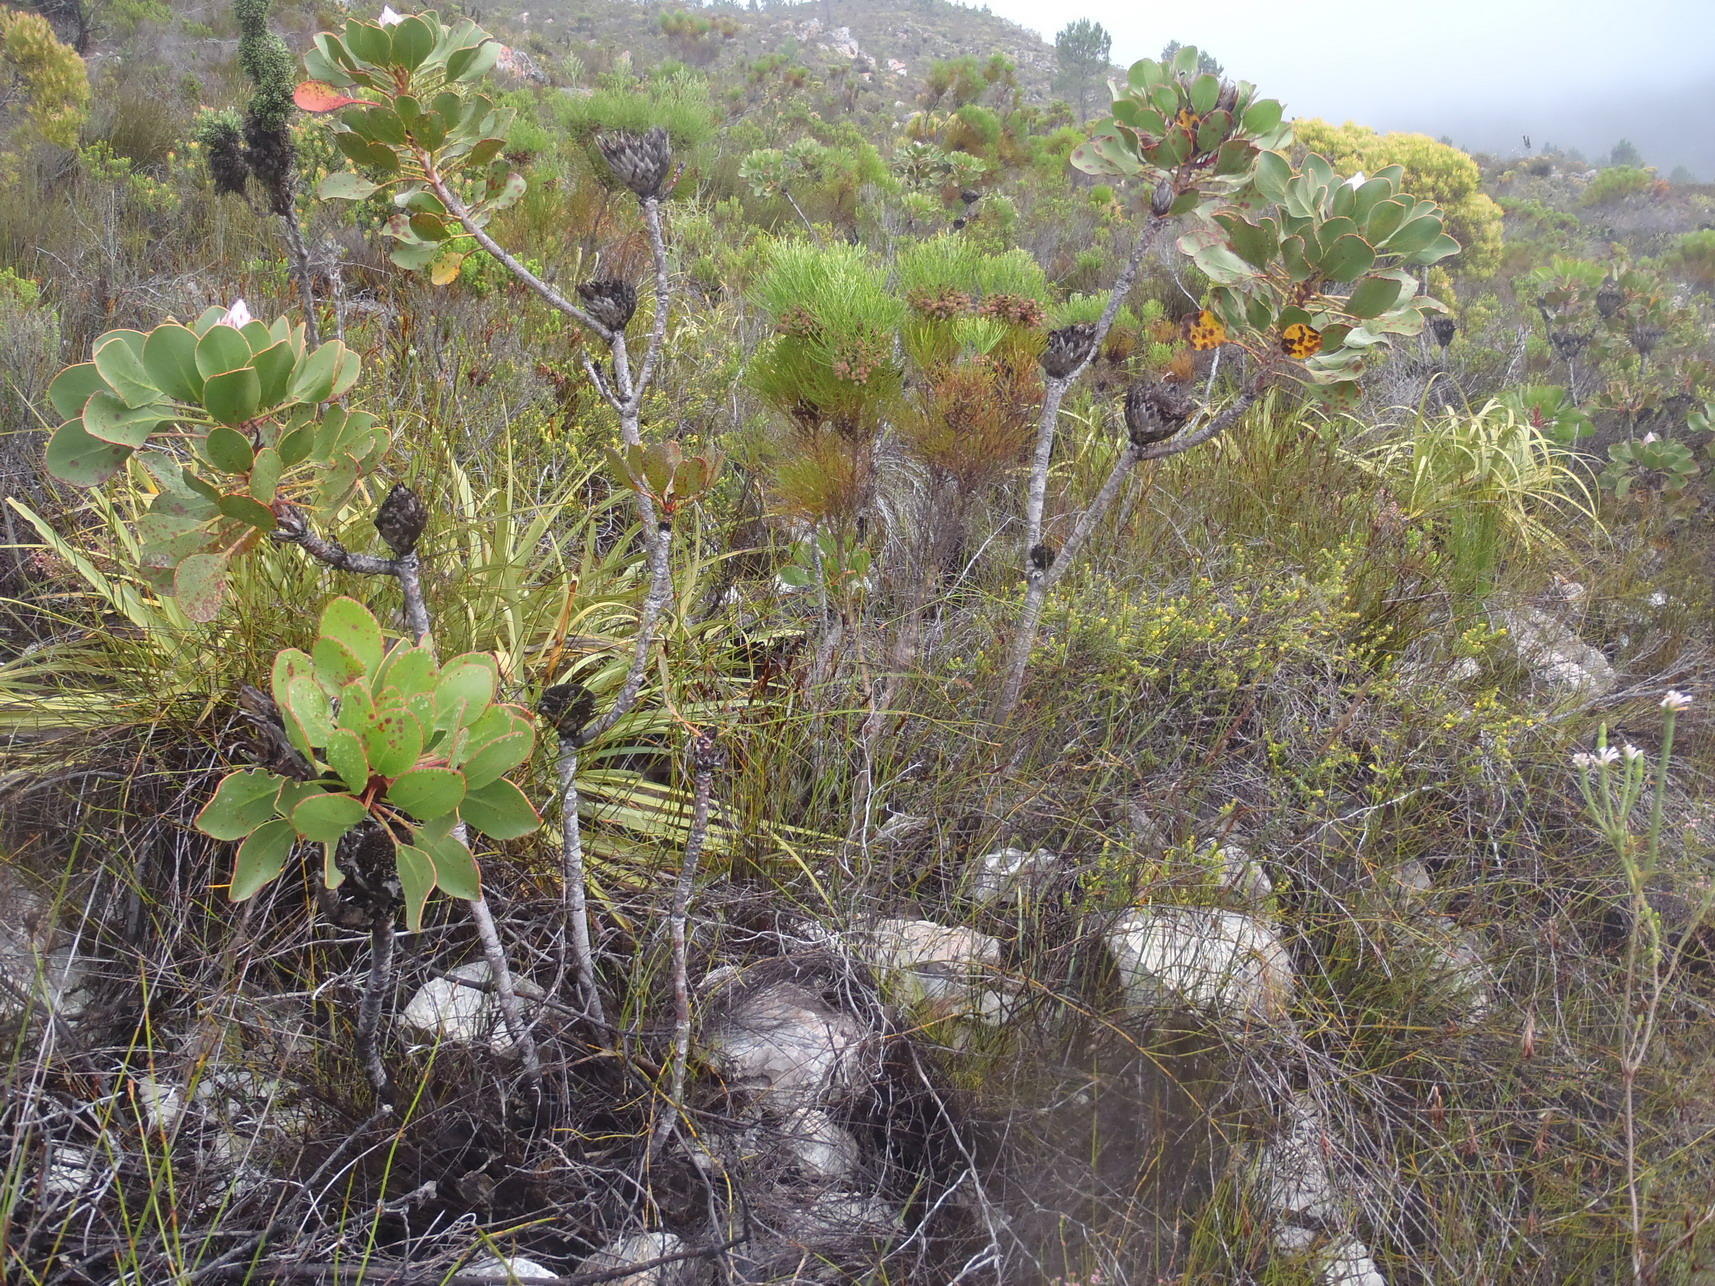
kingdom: Plantae
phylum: Tracheophyta
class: Magnoliopsida
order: Proteales
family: Proteaceae
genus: Protea
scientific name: Protea cynaroides
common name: King protea
